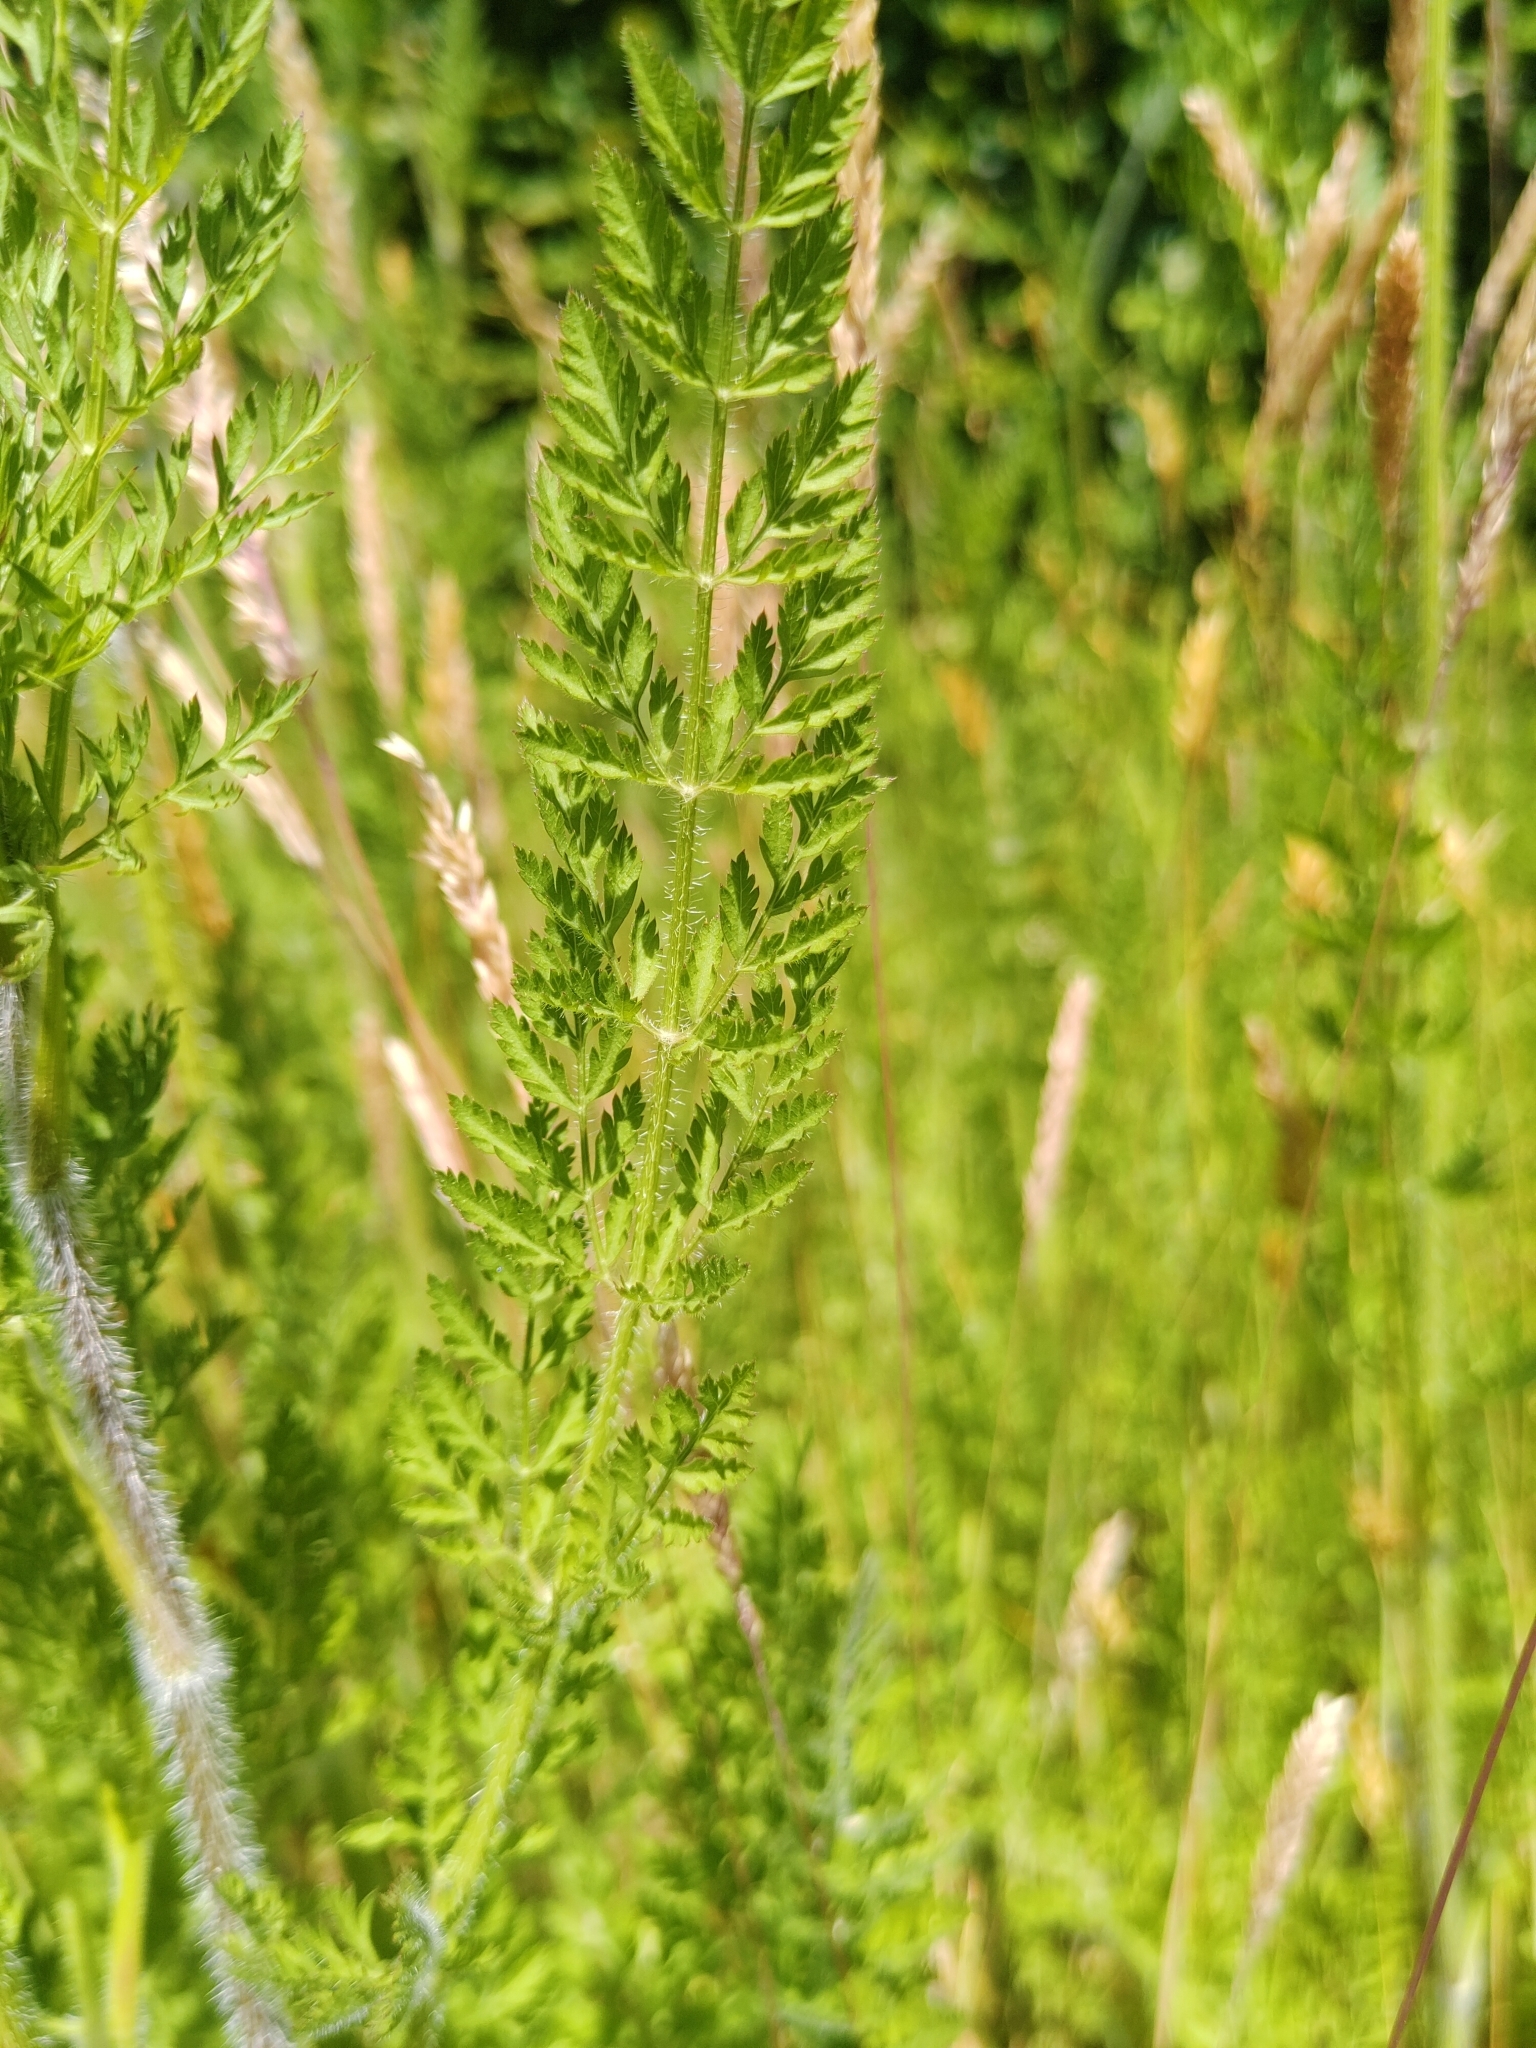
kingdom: Plantae
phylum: Tracheophyta
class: Magnoliopsida
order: Apiales
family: Apiaceae
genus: Daucus
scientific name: Daucus carota
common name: Wild carrot
